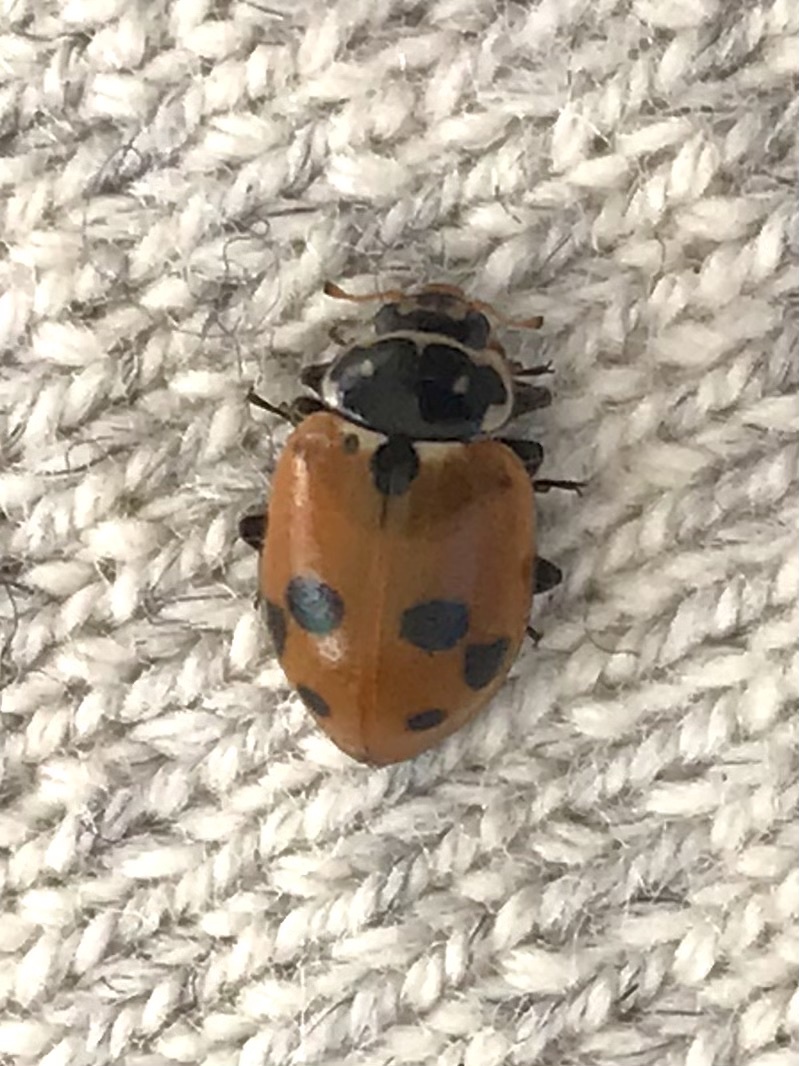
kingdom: Animalia
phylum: Arthropoda
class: Insecta
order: Coleoptera
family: Coccinellidae
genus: Hippodamia
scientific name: Hippodamia variegata
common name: Ladybird beetle
